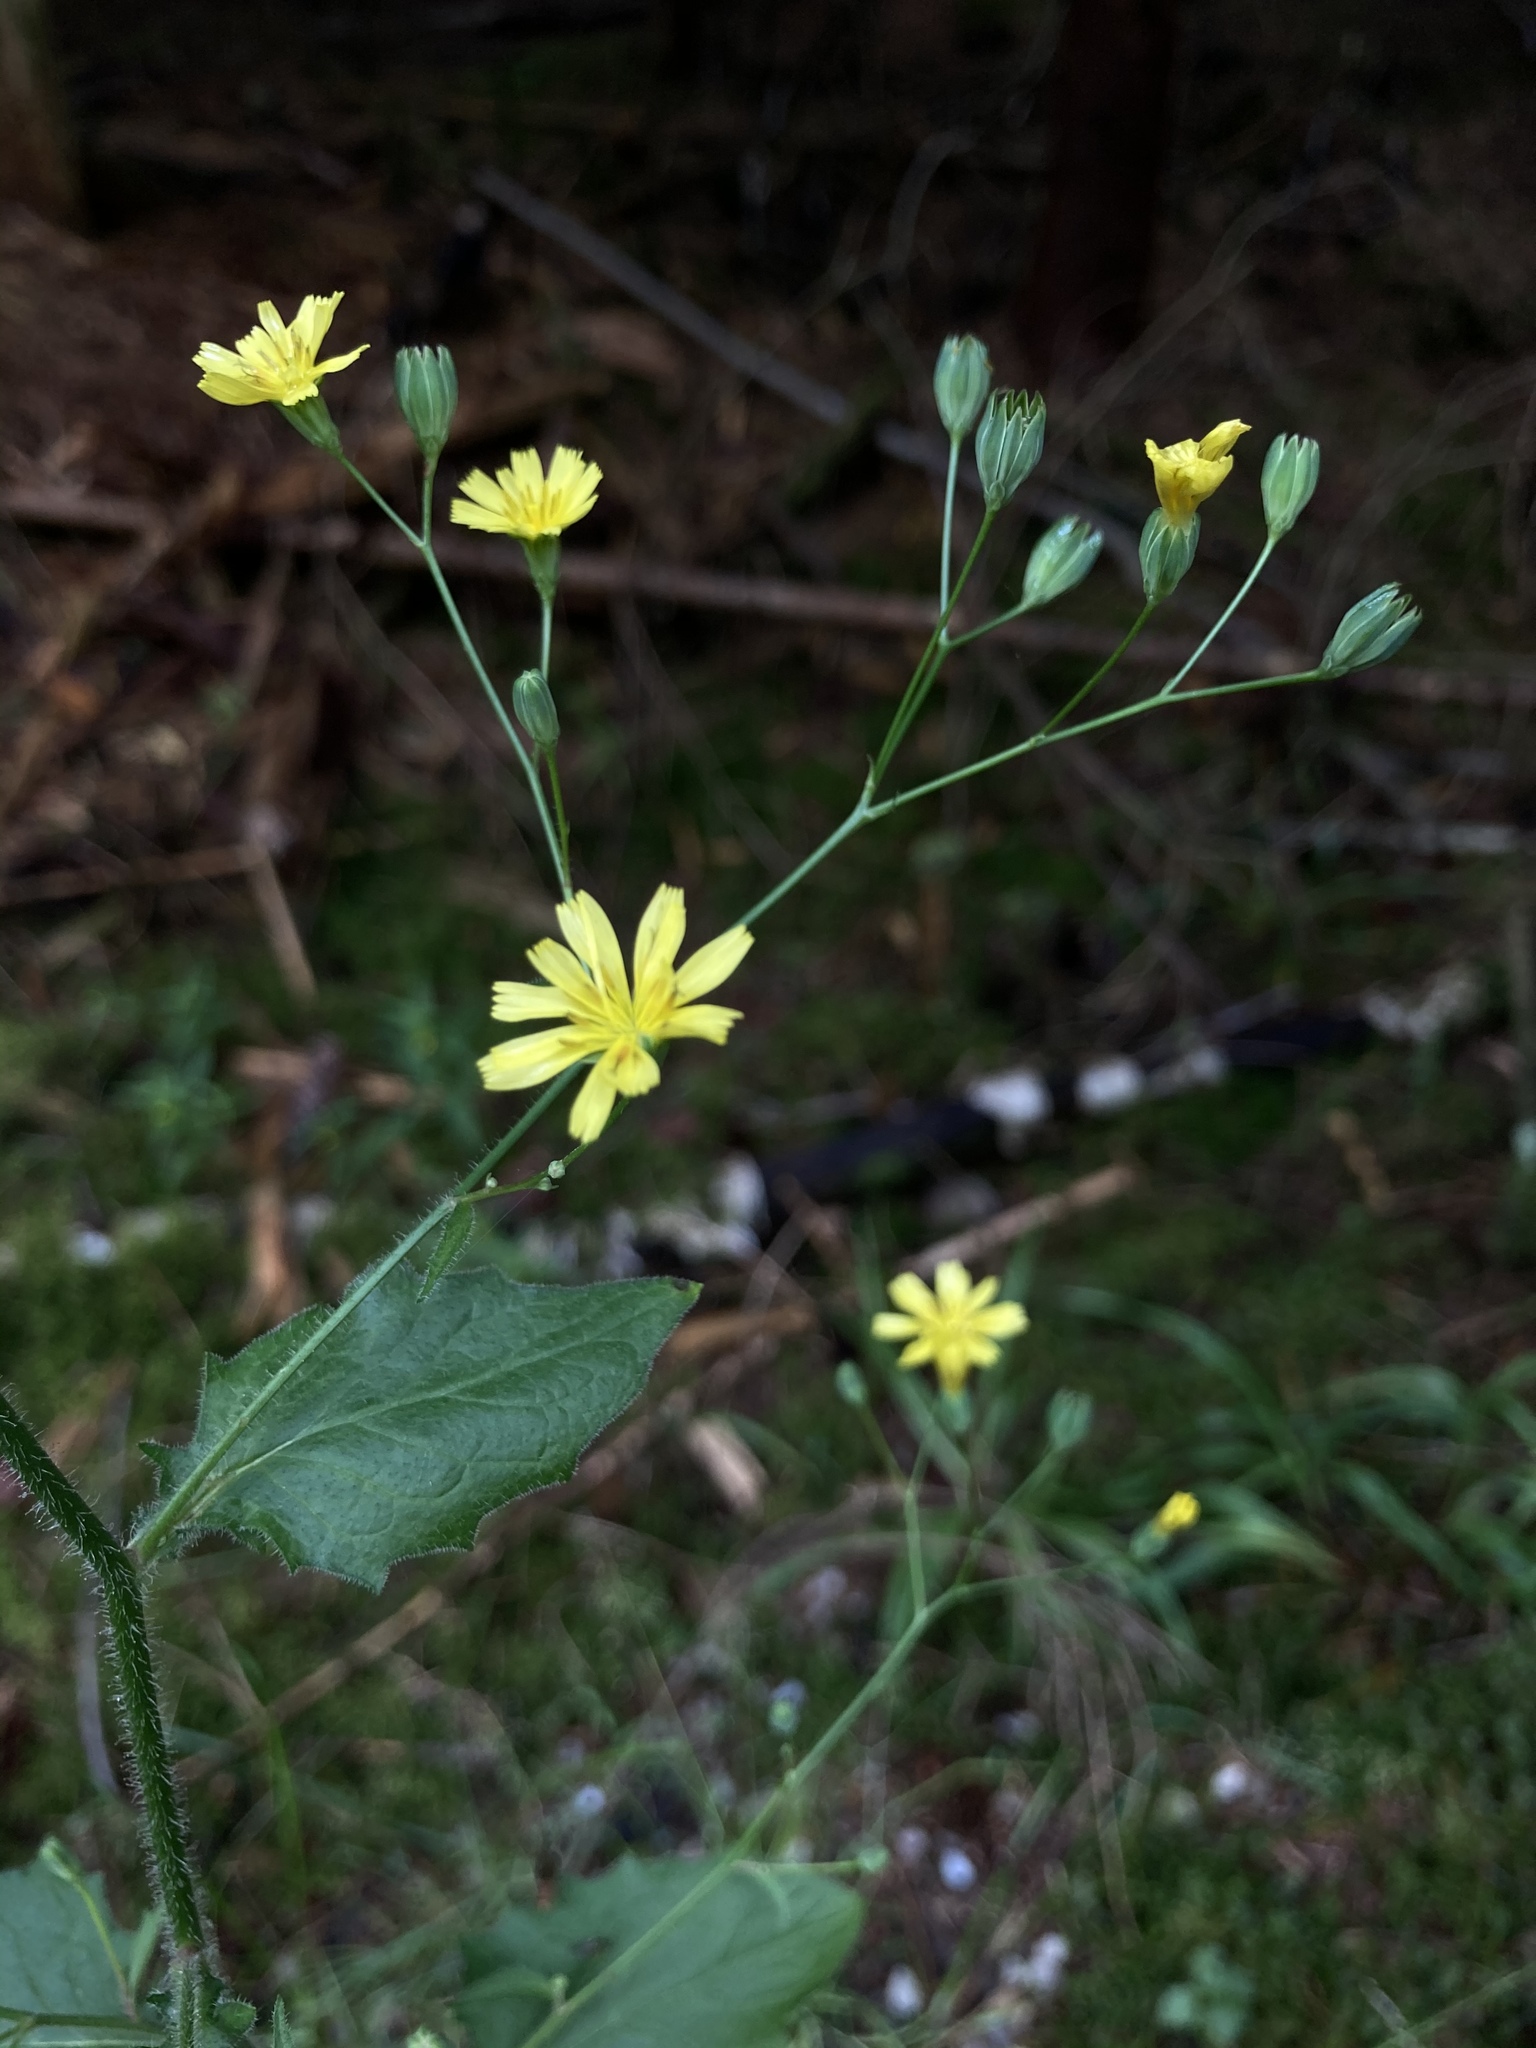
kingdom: Plantae
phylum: Tracheophyta
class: Magnoliopsida
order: Asterales
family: Asteraceae
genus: Lapsana
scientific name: Lapsana communis
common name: Nipplewort
